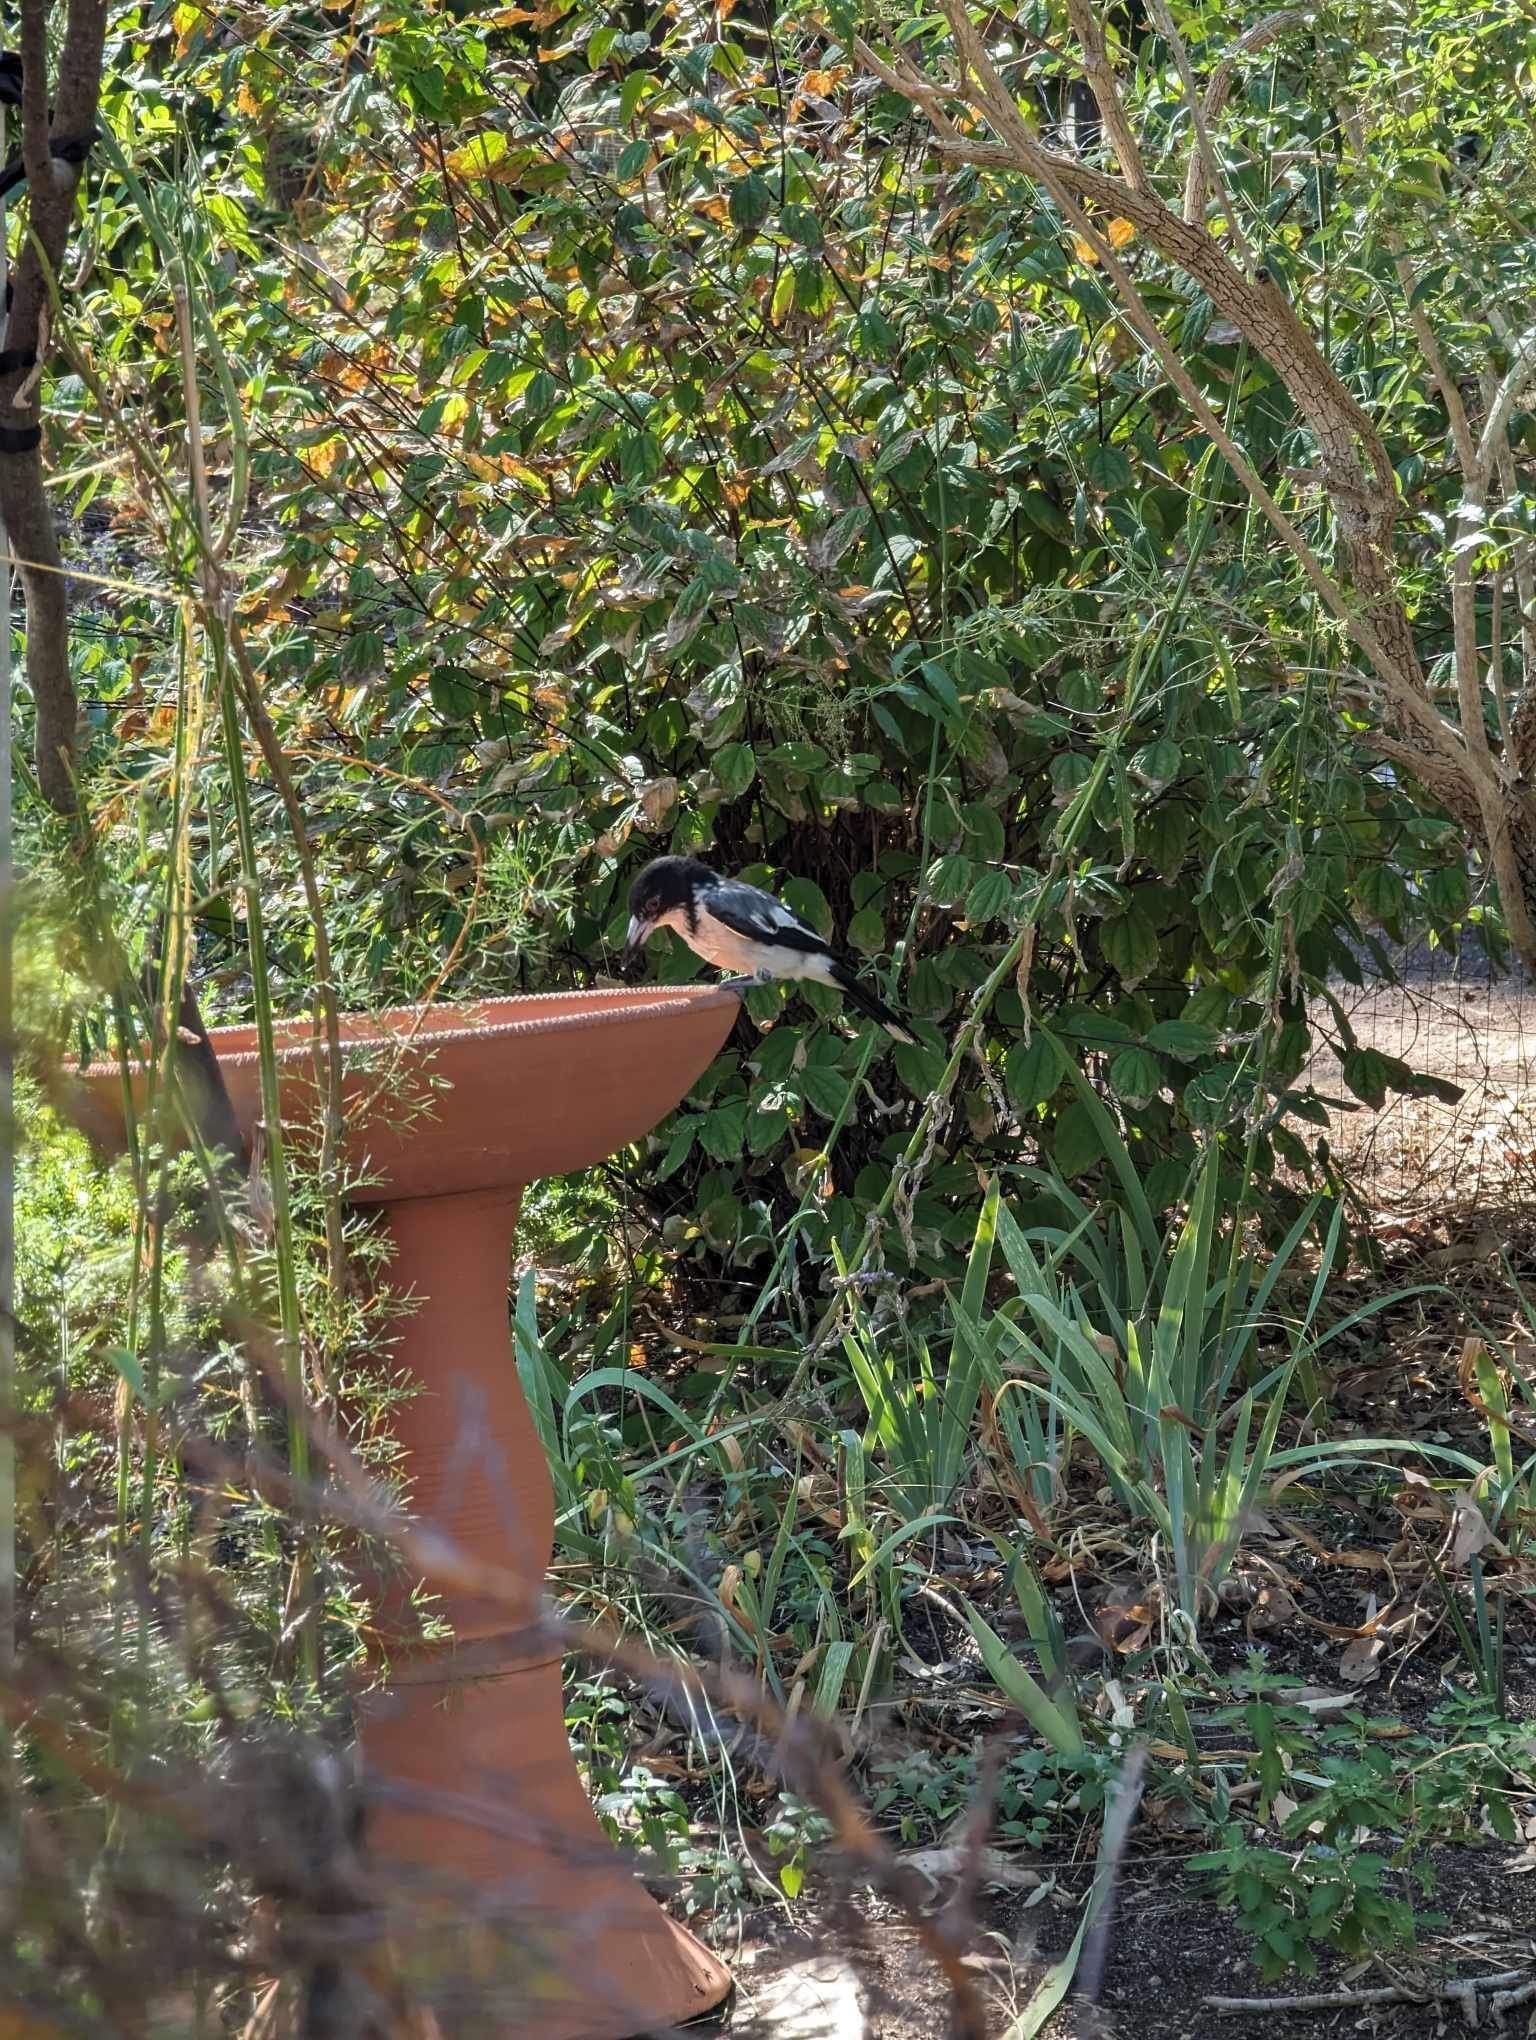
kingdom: Animalia
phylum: Chordata
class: Aves
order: Passeriformes
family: Cracticidae
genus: Cracticus
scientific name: Cracticus torquatus
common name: Grey butcherbird
